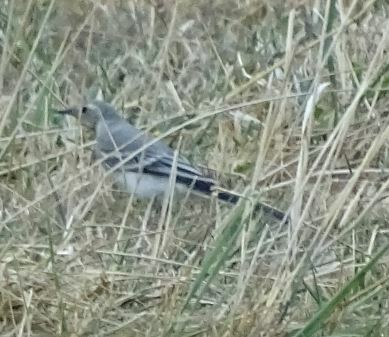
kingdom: Animalia
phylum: Chordata
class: Aves
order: Passeriformes
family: Motacillidae
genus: Motacilla
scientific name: Motacilla alba
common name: White wagtail
